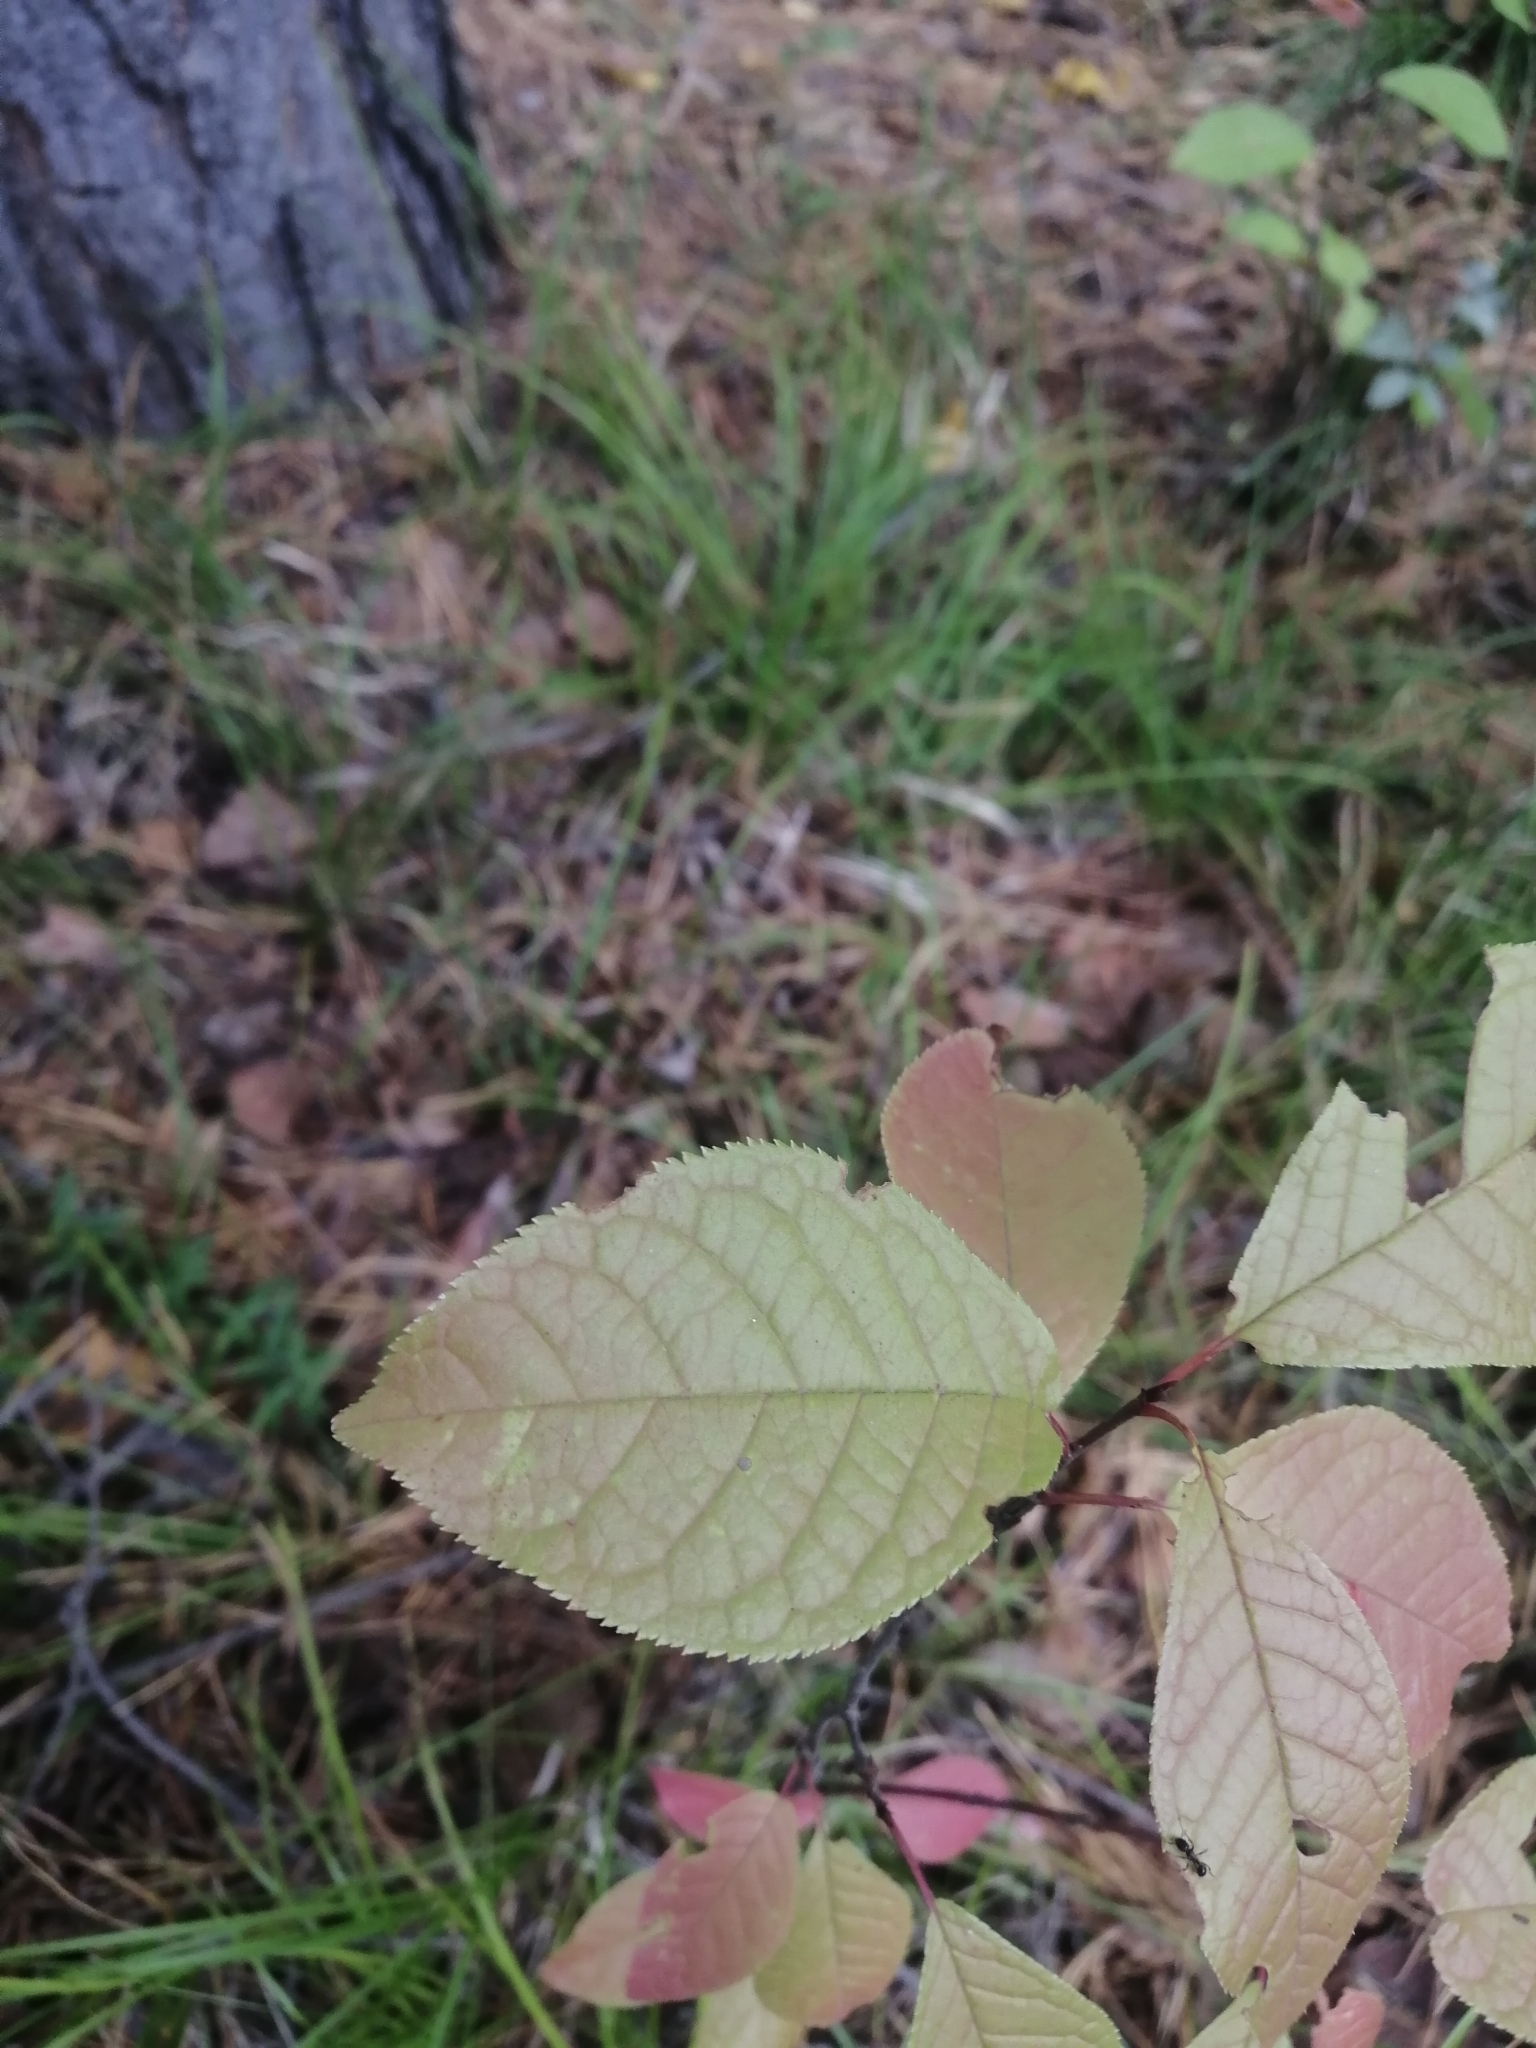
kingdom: Plantae
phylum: Tracheophyta
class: Magnoliopsida
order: Rosales
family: Rosaceae
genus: Prunus
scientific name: Prunus padus
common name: Bird cherry
